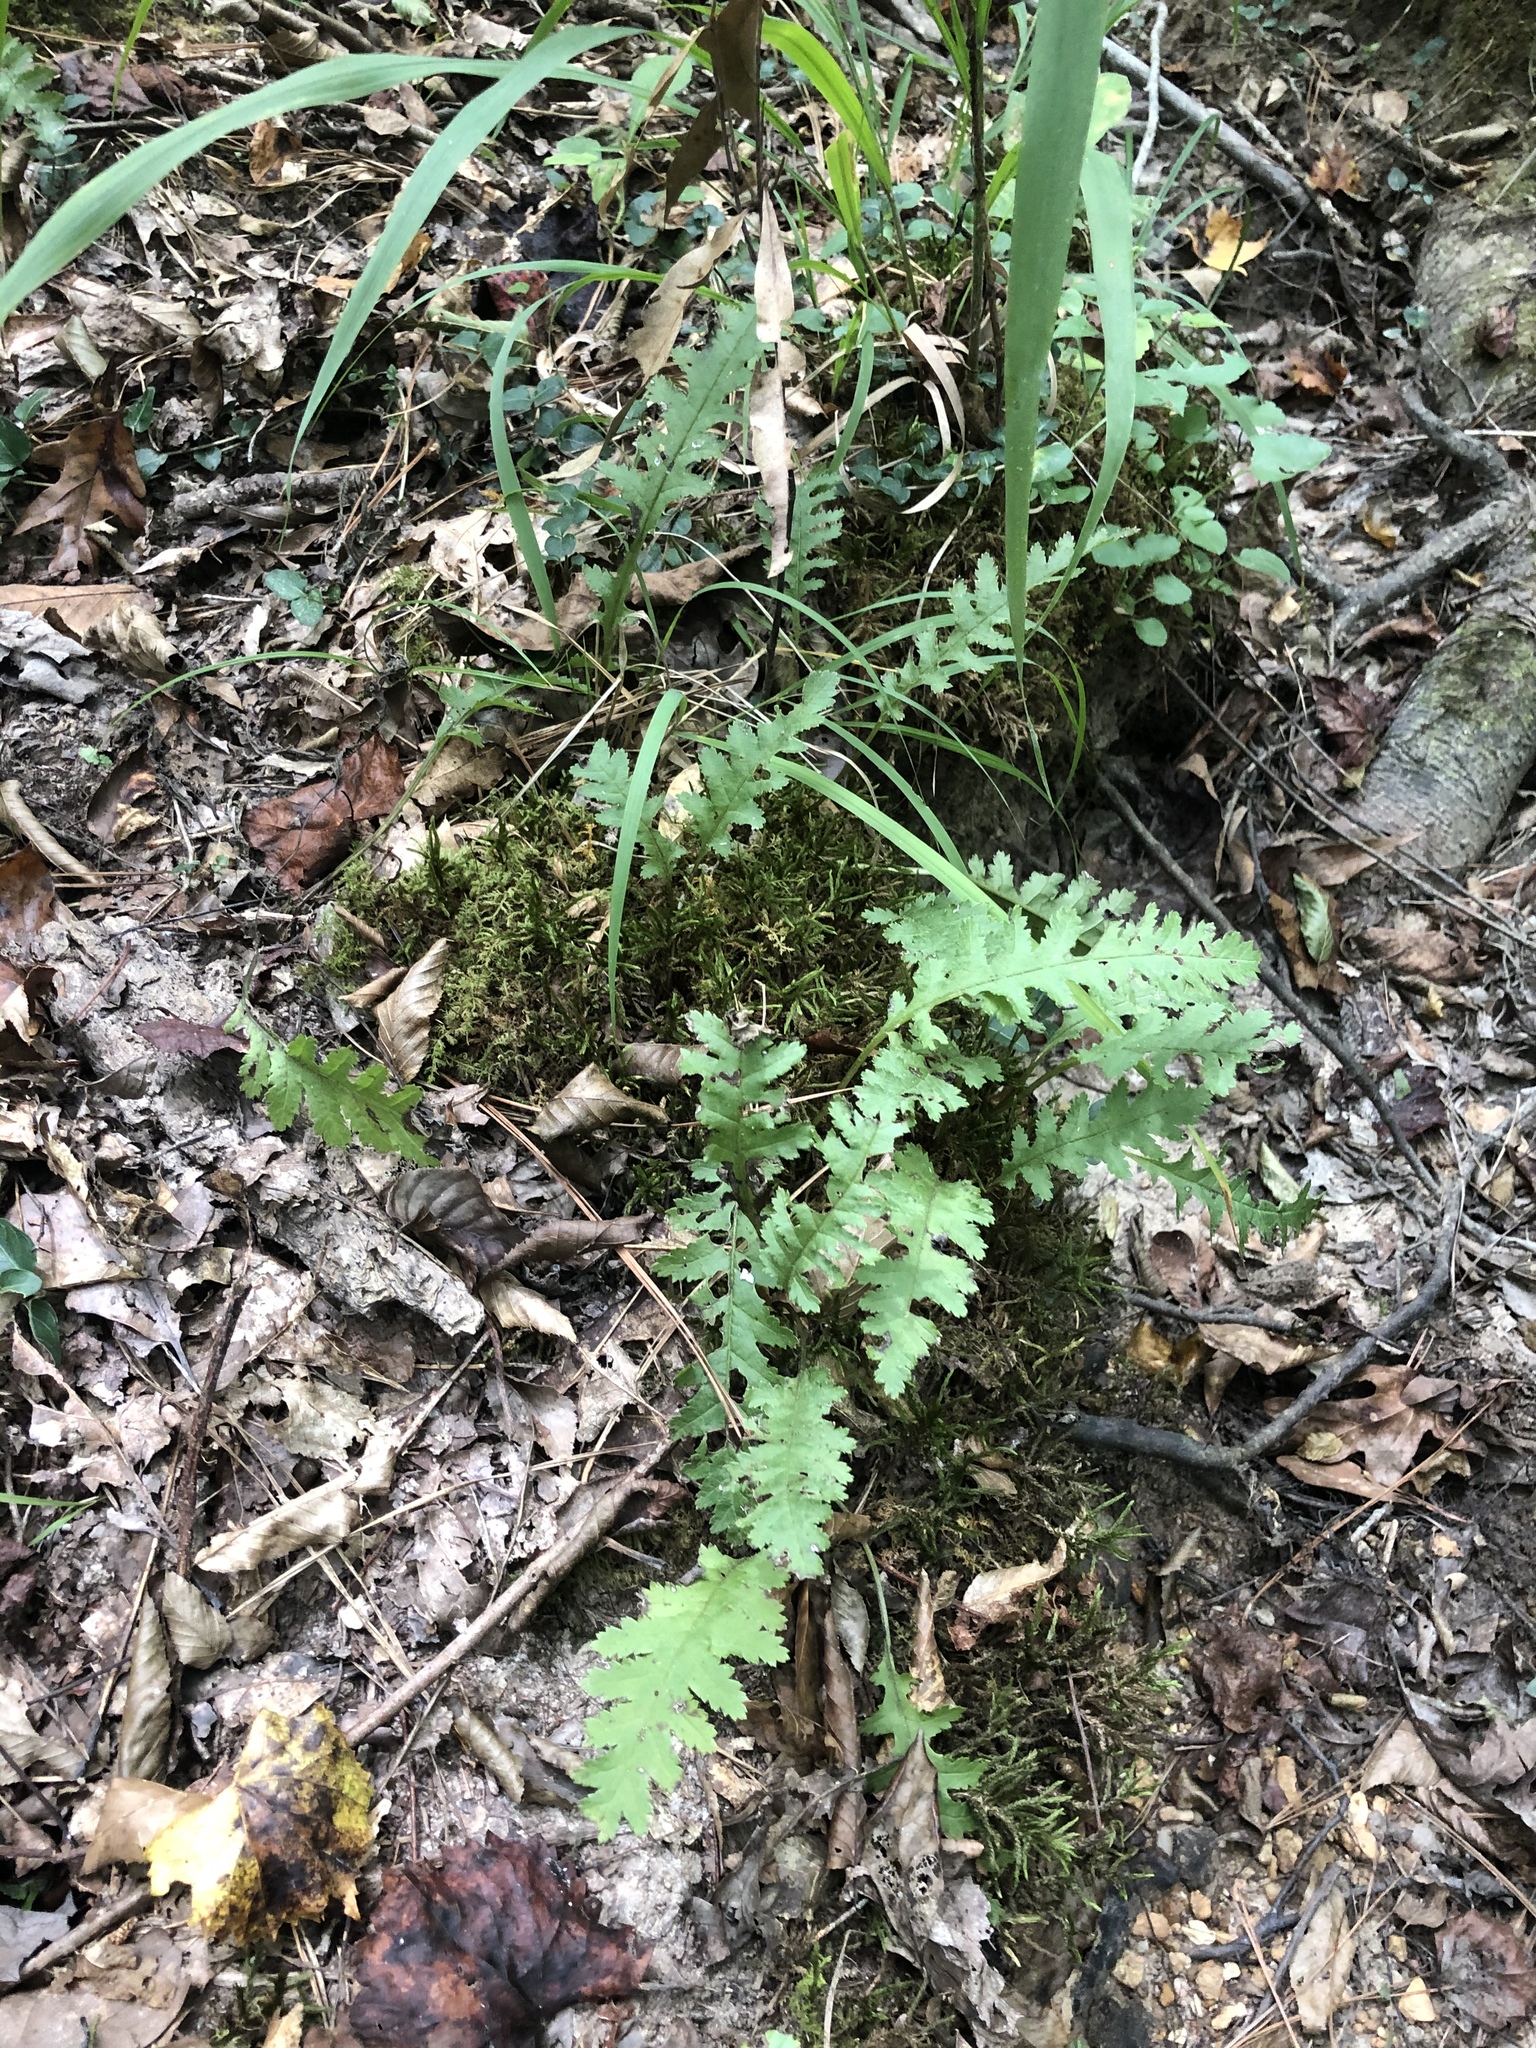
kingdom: Plantae
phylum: Tracheophyta
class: Magnoliopsida
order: Lamiales
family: Orobanchaceae
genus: Pedicularis
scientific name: Pedicularis canadensis
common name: Early lousewort
